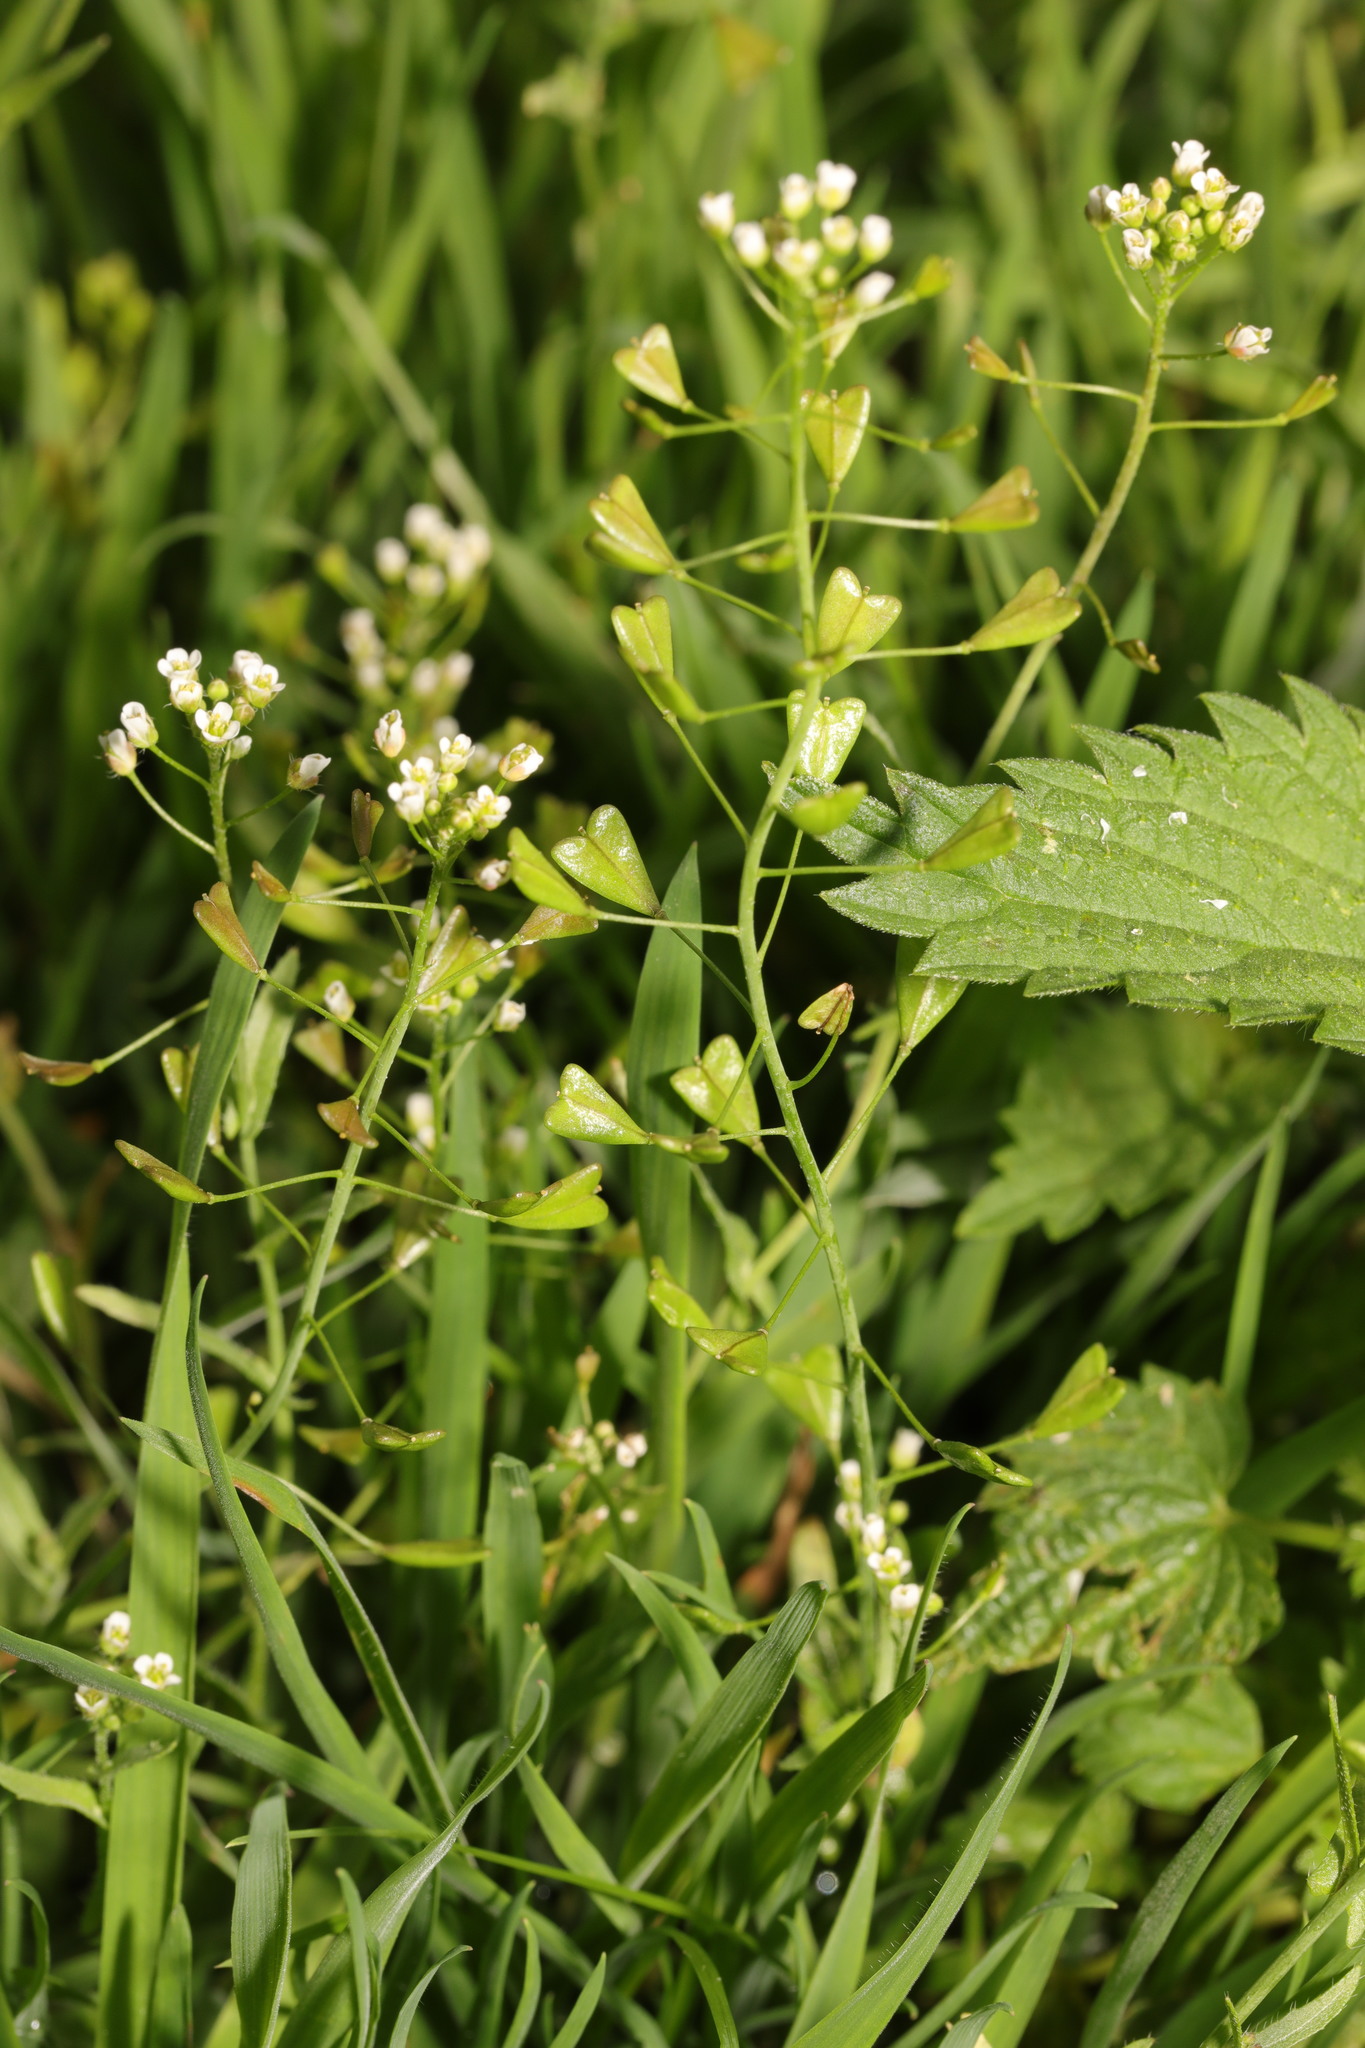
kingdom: Plantae
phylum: Tracheophyta
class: Magnoliopsida
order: Brassicales
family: Brassicaceae
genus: Capsella
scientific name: Capsella bursa-pastoris
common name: Shepherd's purse
